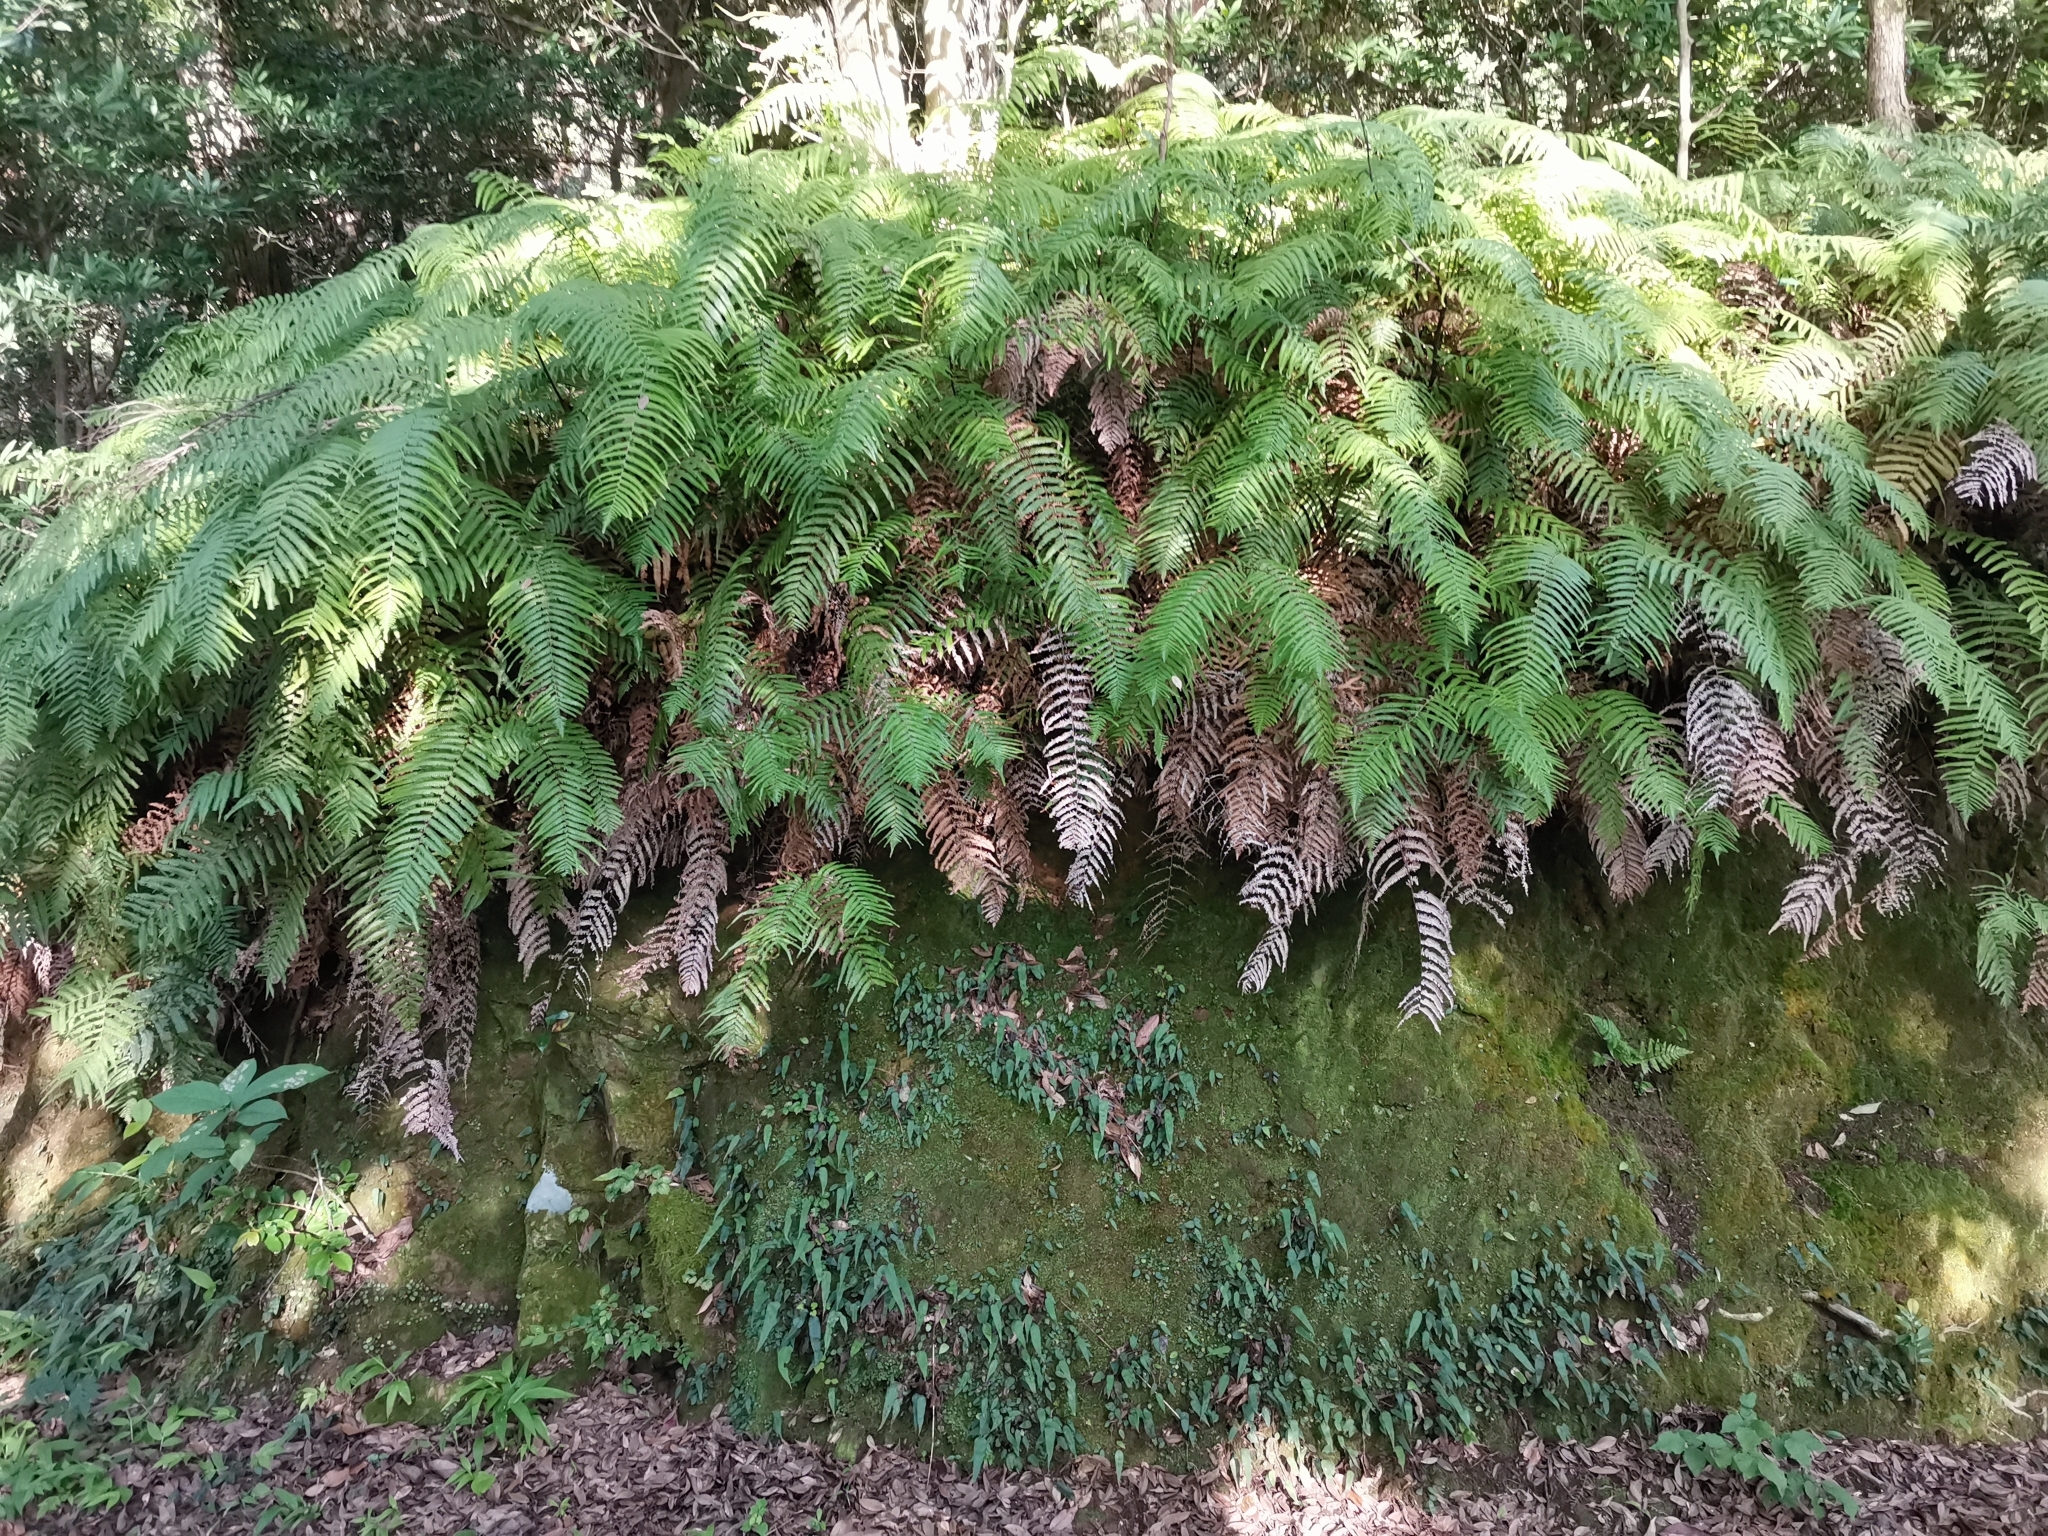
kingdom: Plantae
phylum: Tracheophyta
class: Polypodiopsida
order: Gleicheniales
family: Gleicheniaceae
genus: Diplopterygium
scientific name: Diplopterygium glaucum
